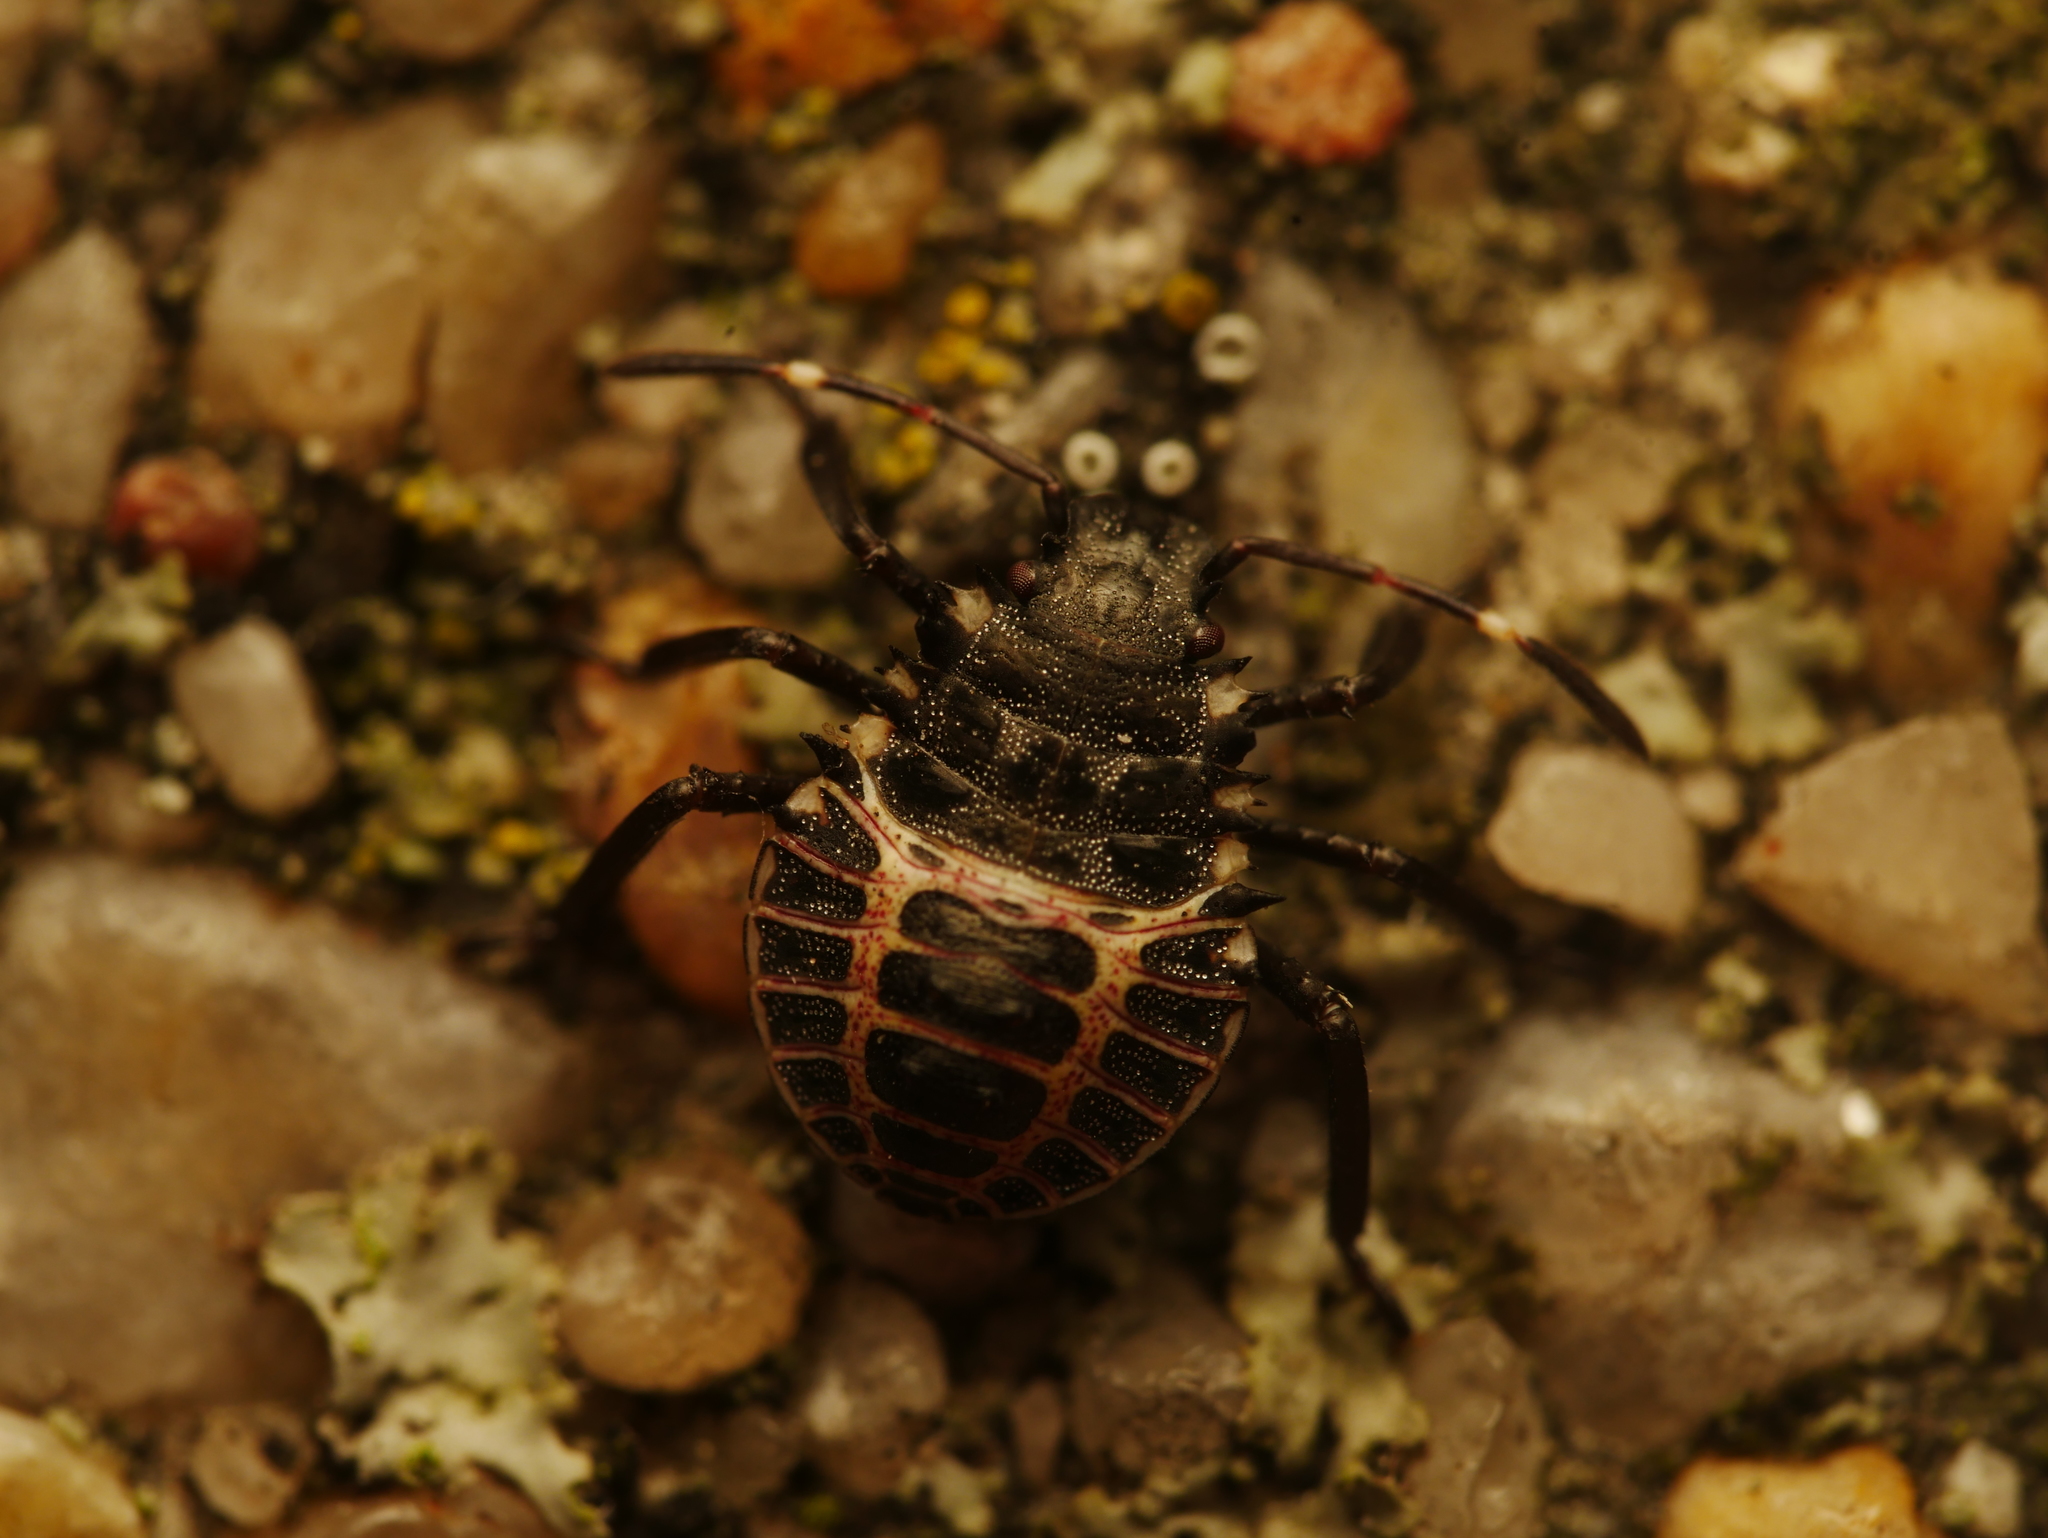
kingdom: Animalia
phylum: Arthropoda
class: Insecta
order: Hemiptera
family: Pentatomidae
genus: Halyomorpha
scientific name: Halyomorpha halys
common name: Brown marmorated stink bug
